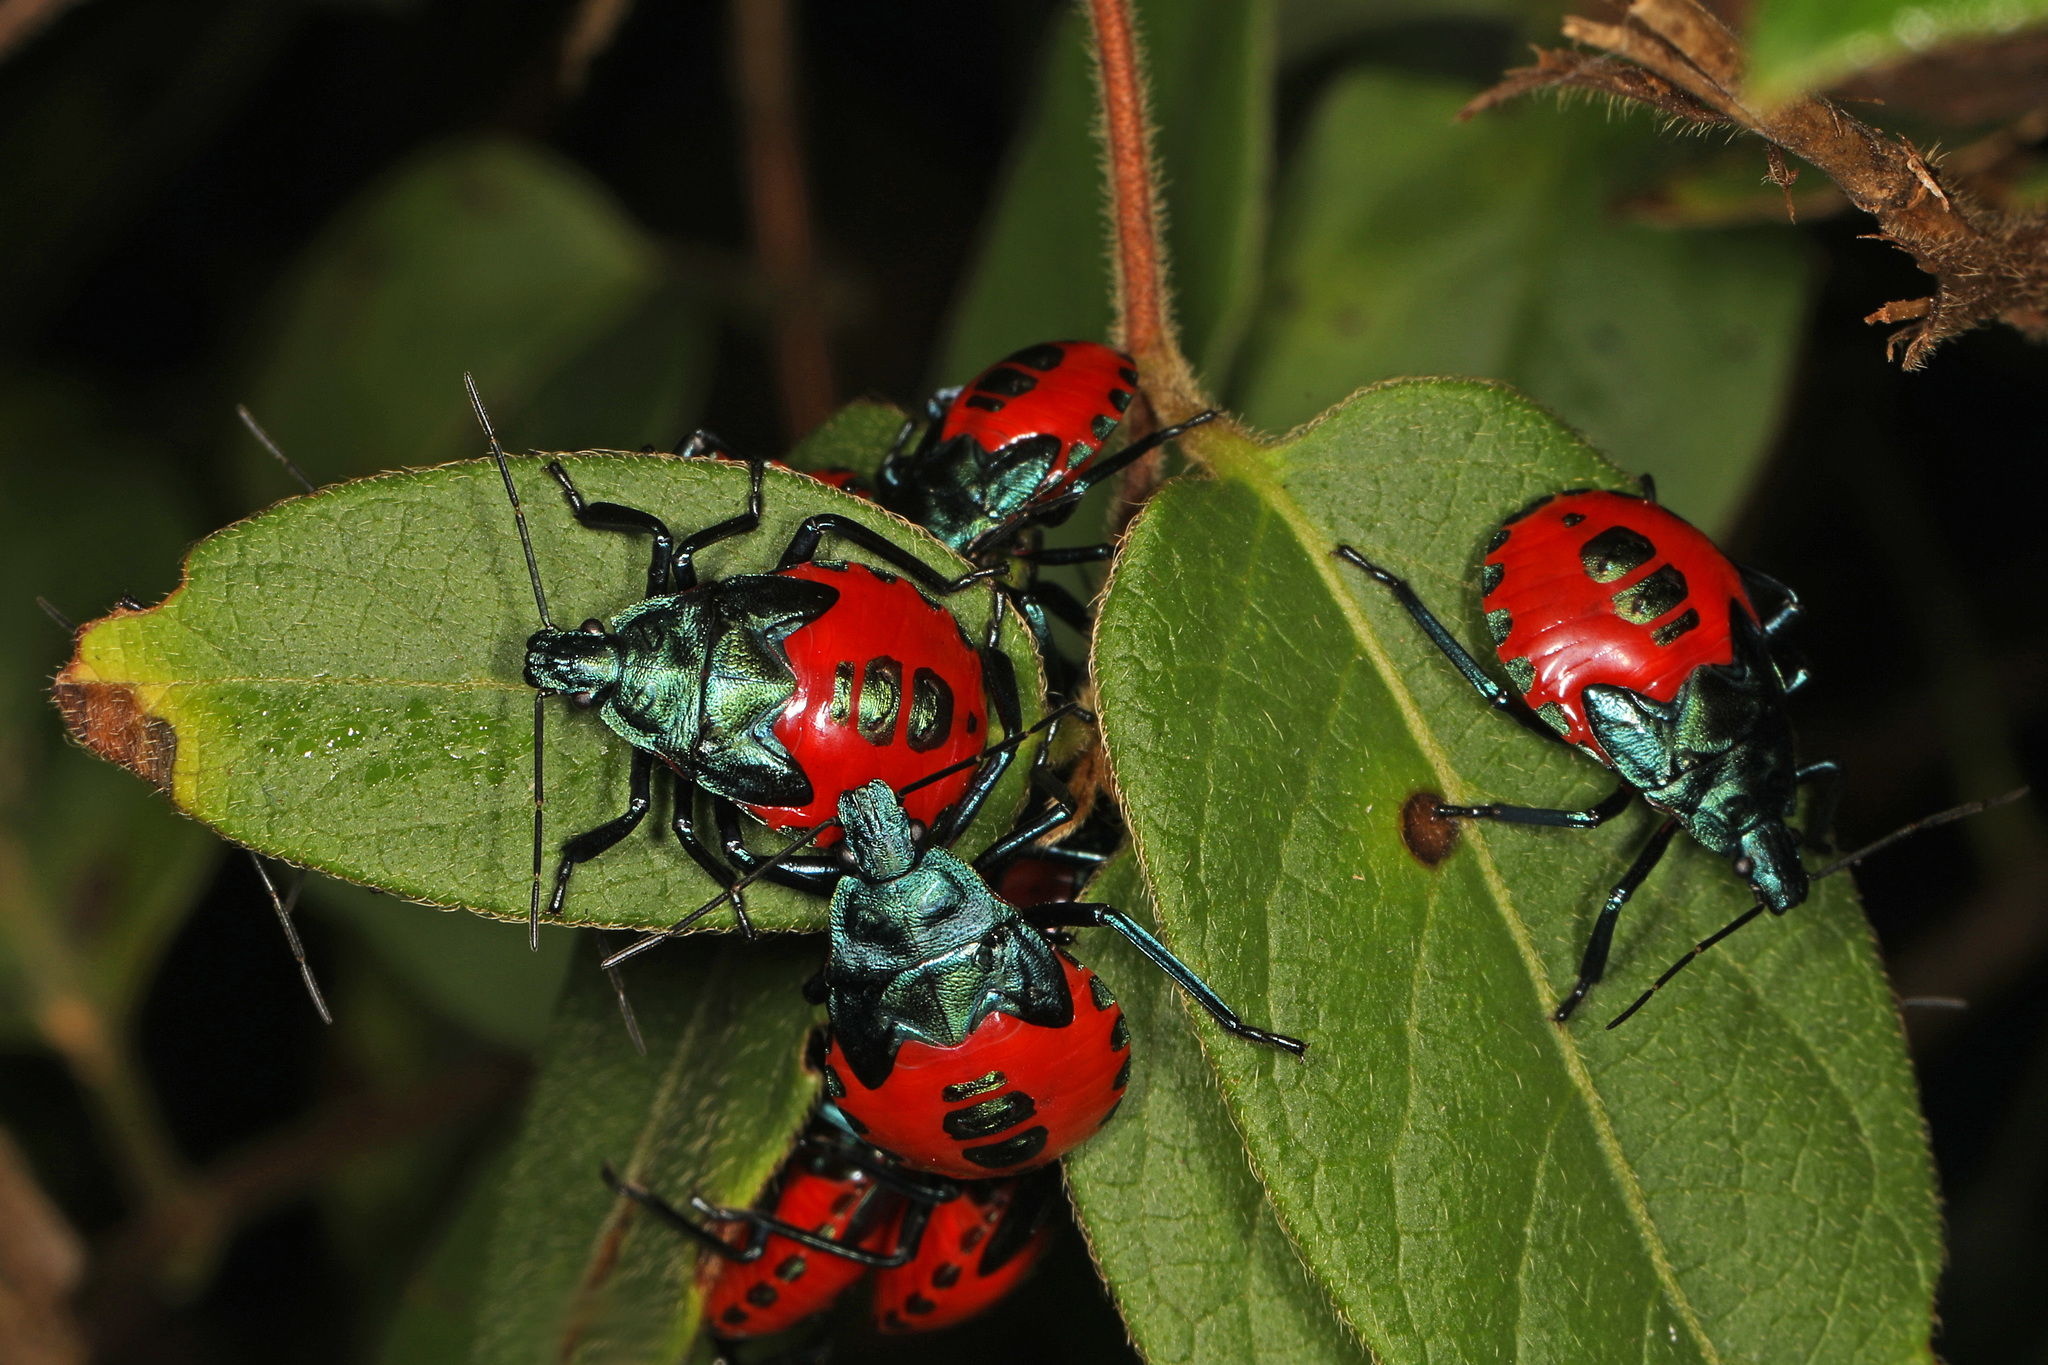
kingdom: Animalia
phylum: Arthropoda
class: Insecta
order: Hemiptera
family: Pentatomidae
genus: Euthyrhynchus
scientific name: Euthyrhynchus floridanus
